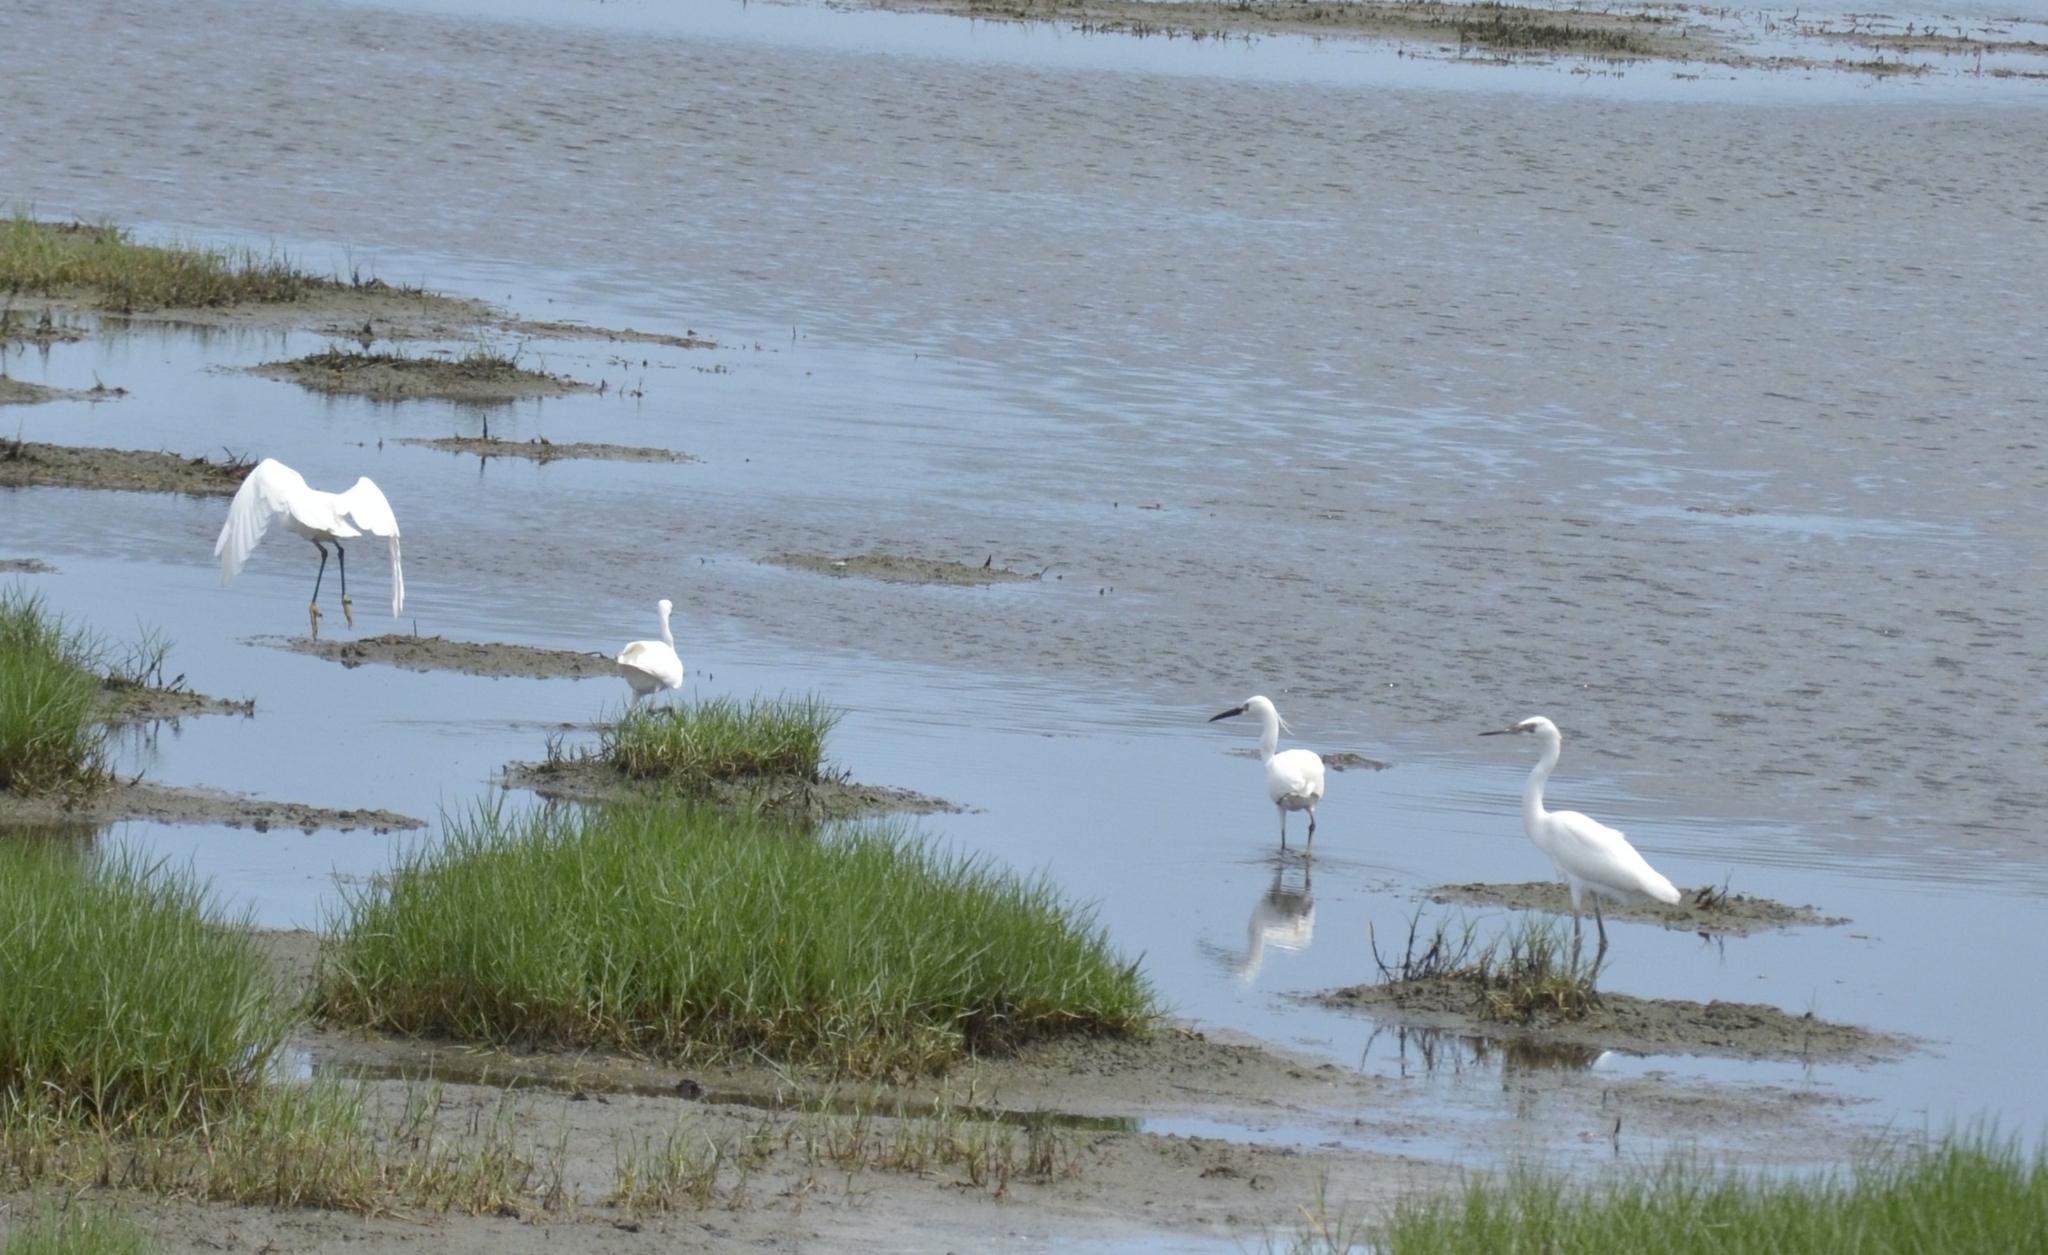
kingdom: Animalia
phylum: Chordata
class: Aves
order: Pelecaniformes
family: Ardeidae
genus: Egretta
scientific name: Egretta garzetta
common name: Little egret
